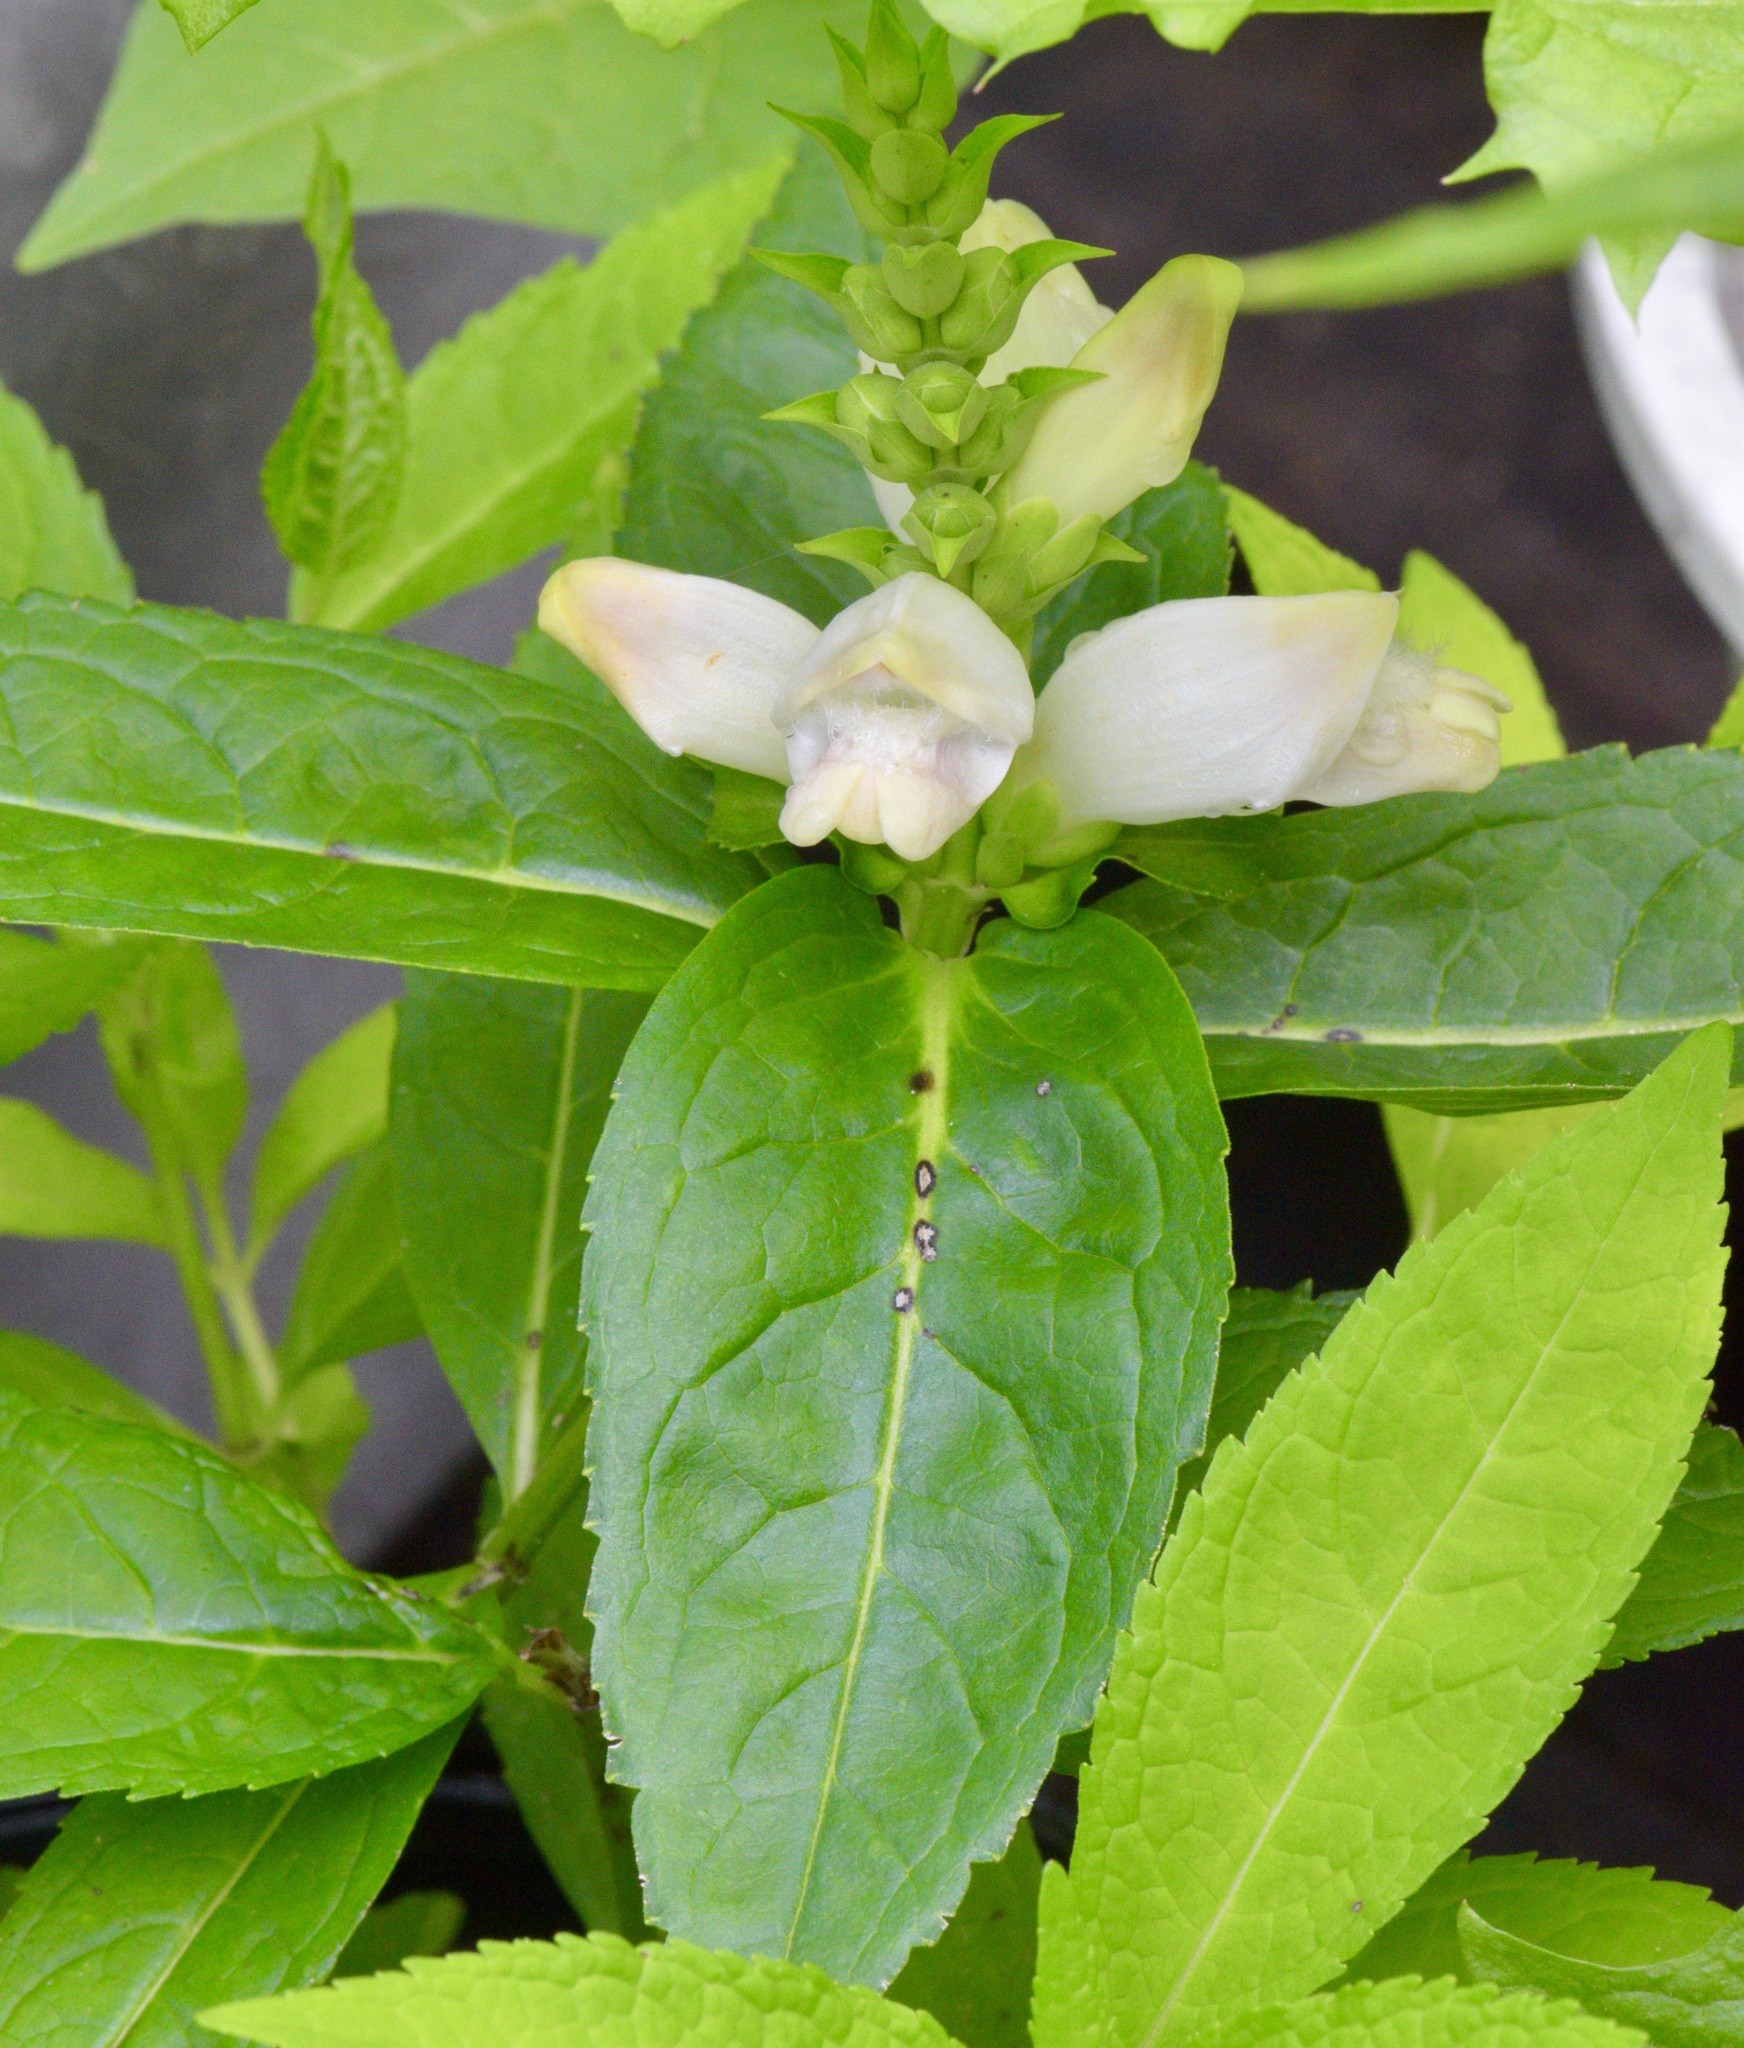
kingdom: Plantae
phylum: Tracheophyta
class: Magnoliopsida
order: Lamiales
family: Plantaginaceae
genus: Chelone
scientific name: Chelone glabra
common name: Snakehead
